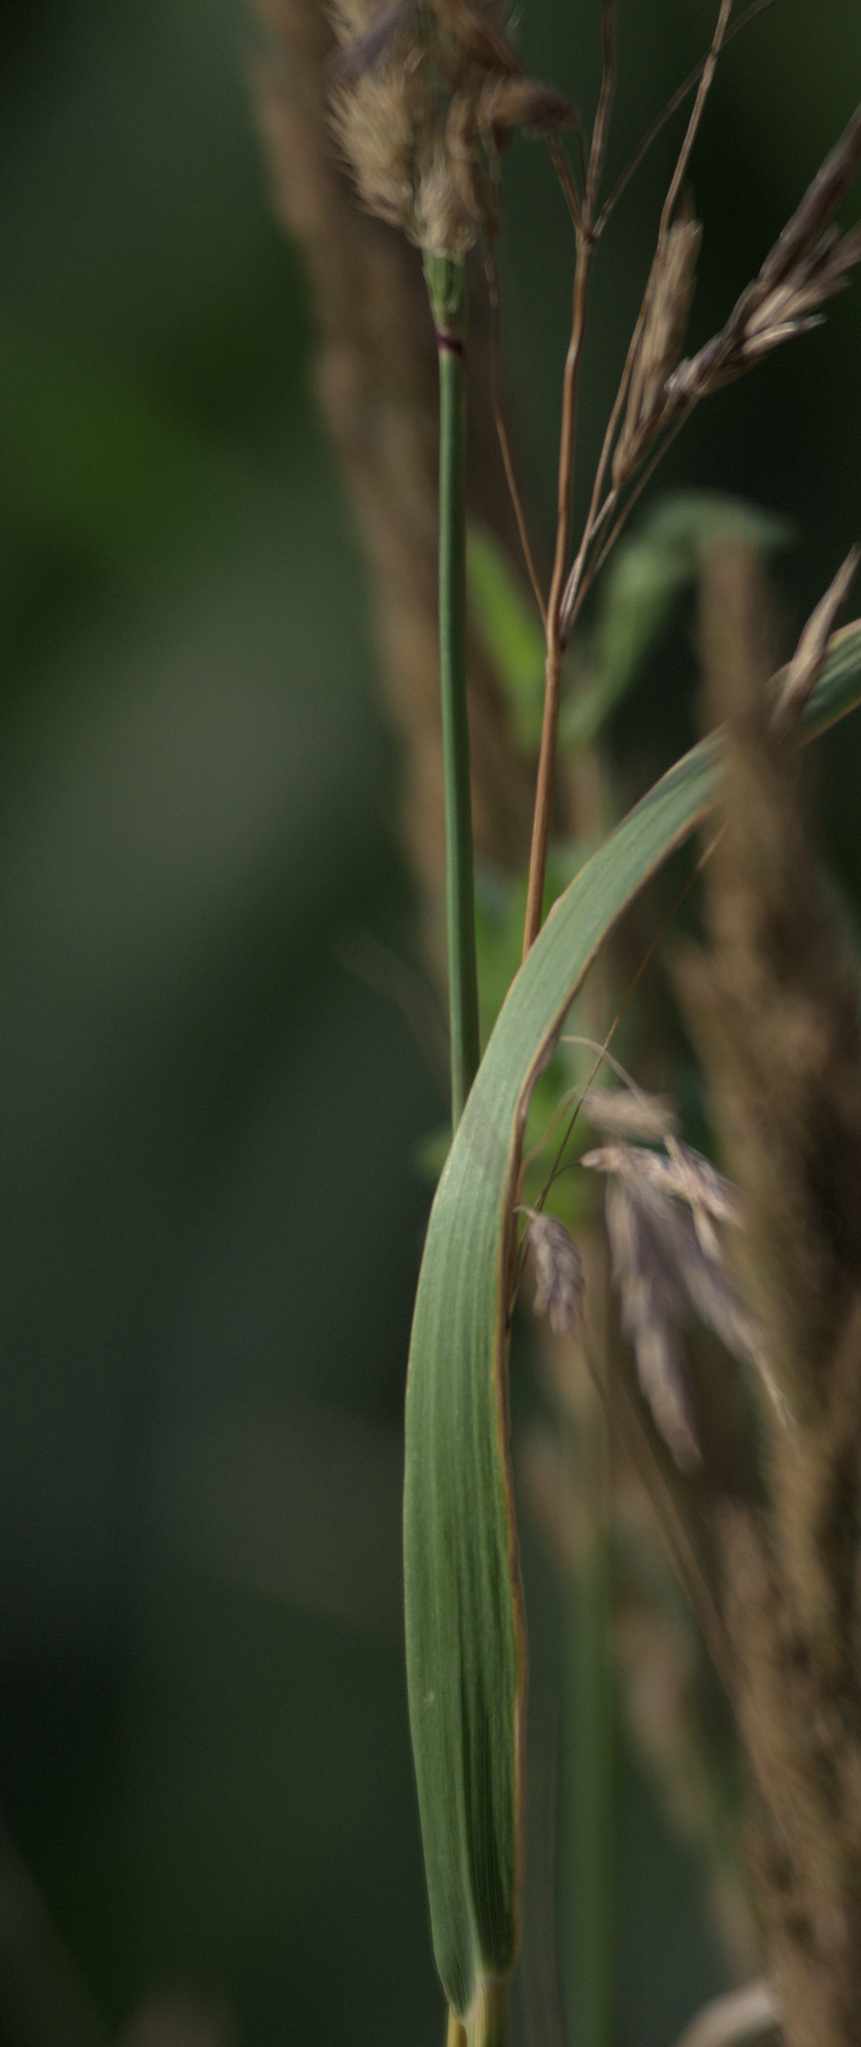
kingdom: Plantae
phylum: Tracheophyta
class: Liliopsida
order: Poales
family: Poaceae
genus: Calamagrostis
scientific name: Calamagrostis epigejos
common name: Wood small-reed
